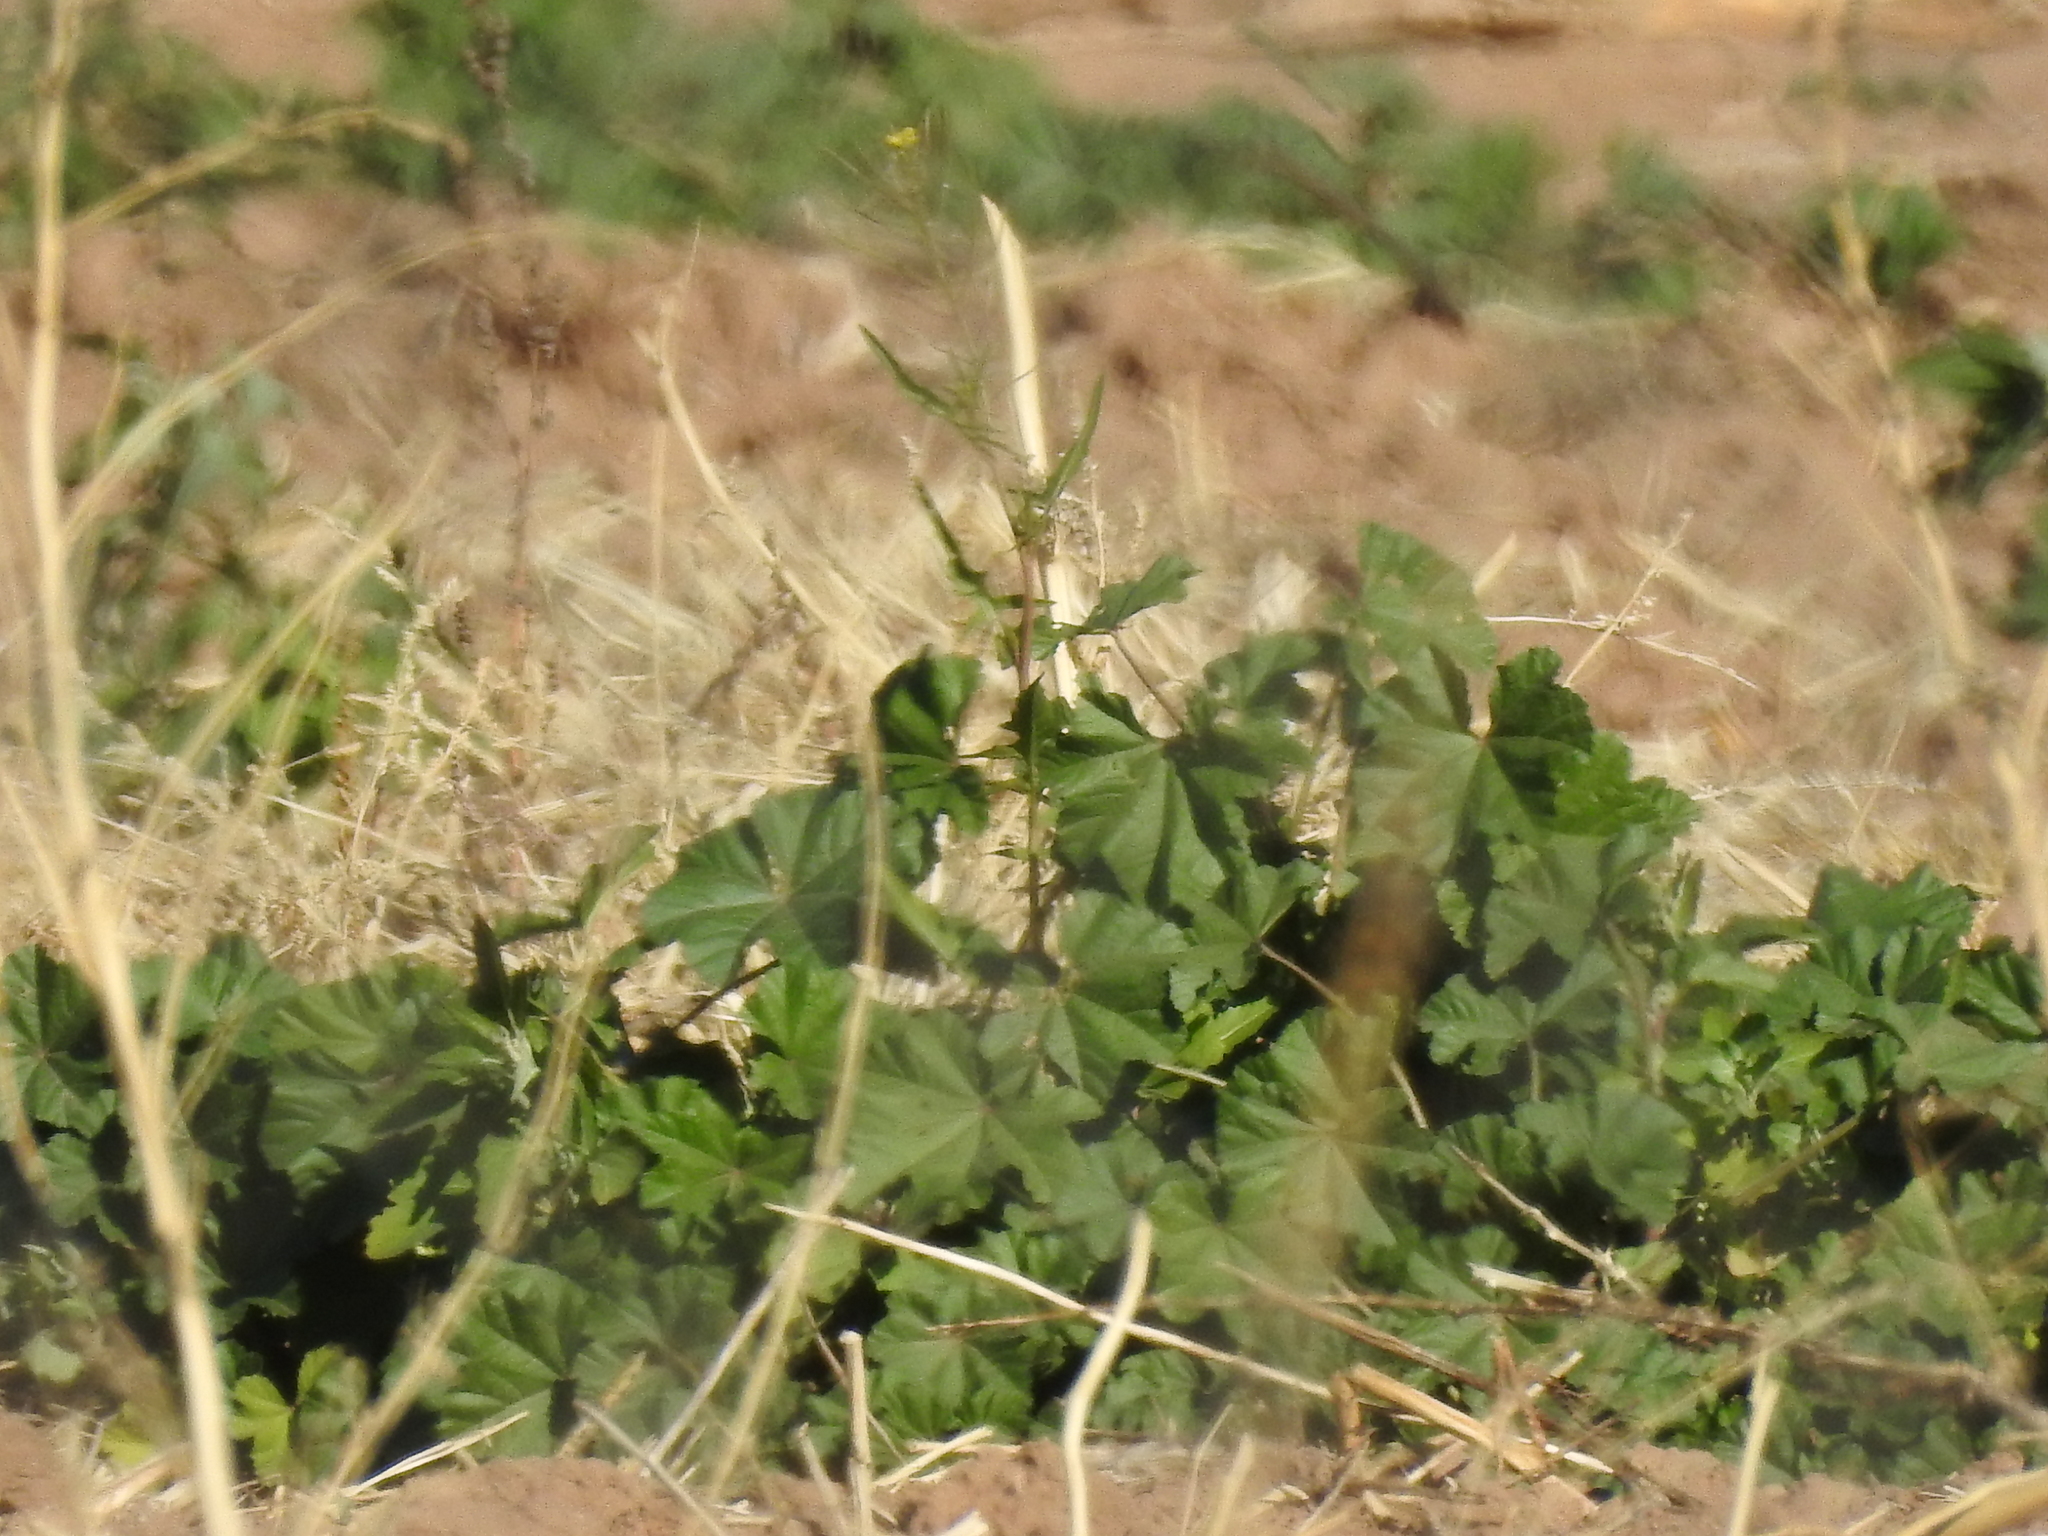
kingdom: Plantae
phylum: Tracheophyta
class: Magnoliopsida
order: Malvales
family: Malvaceae
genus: Malva
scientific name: Malva parviflora
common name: Least mallow
